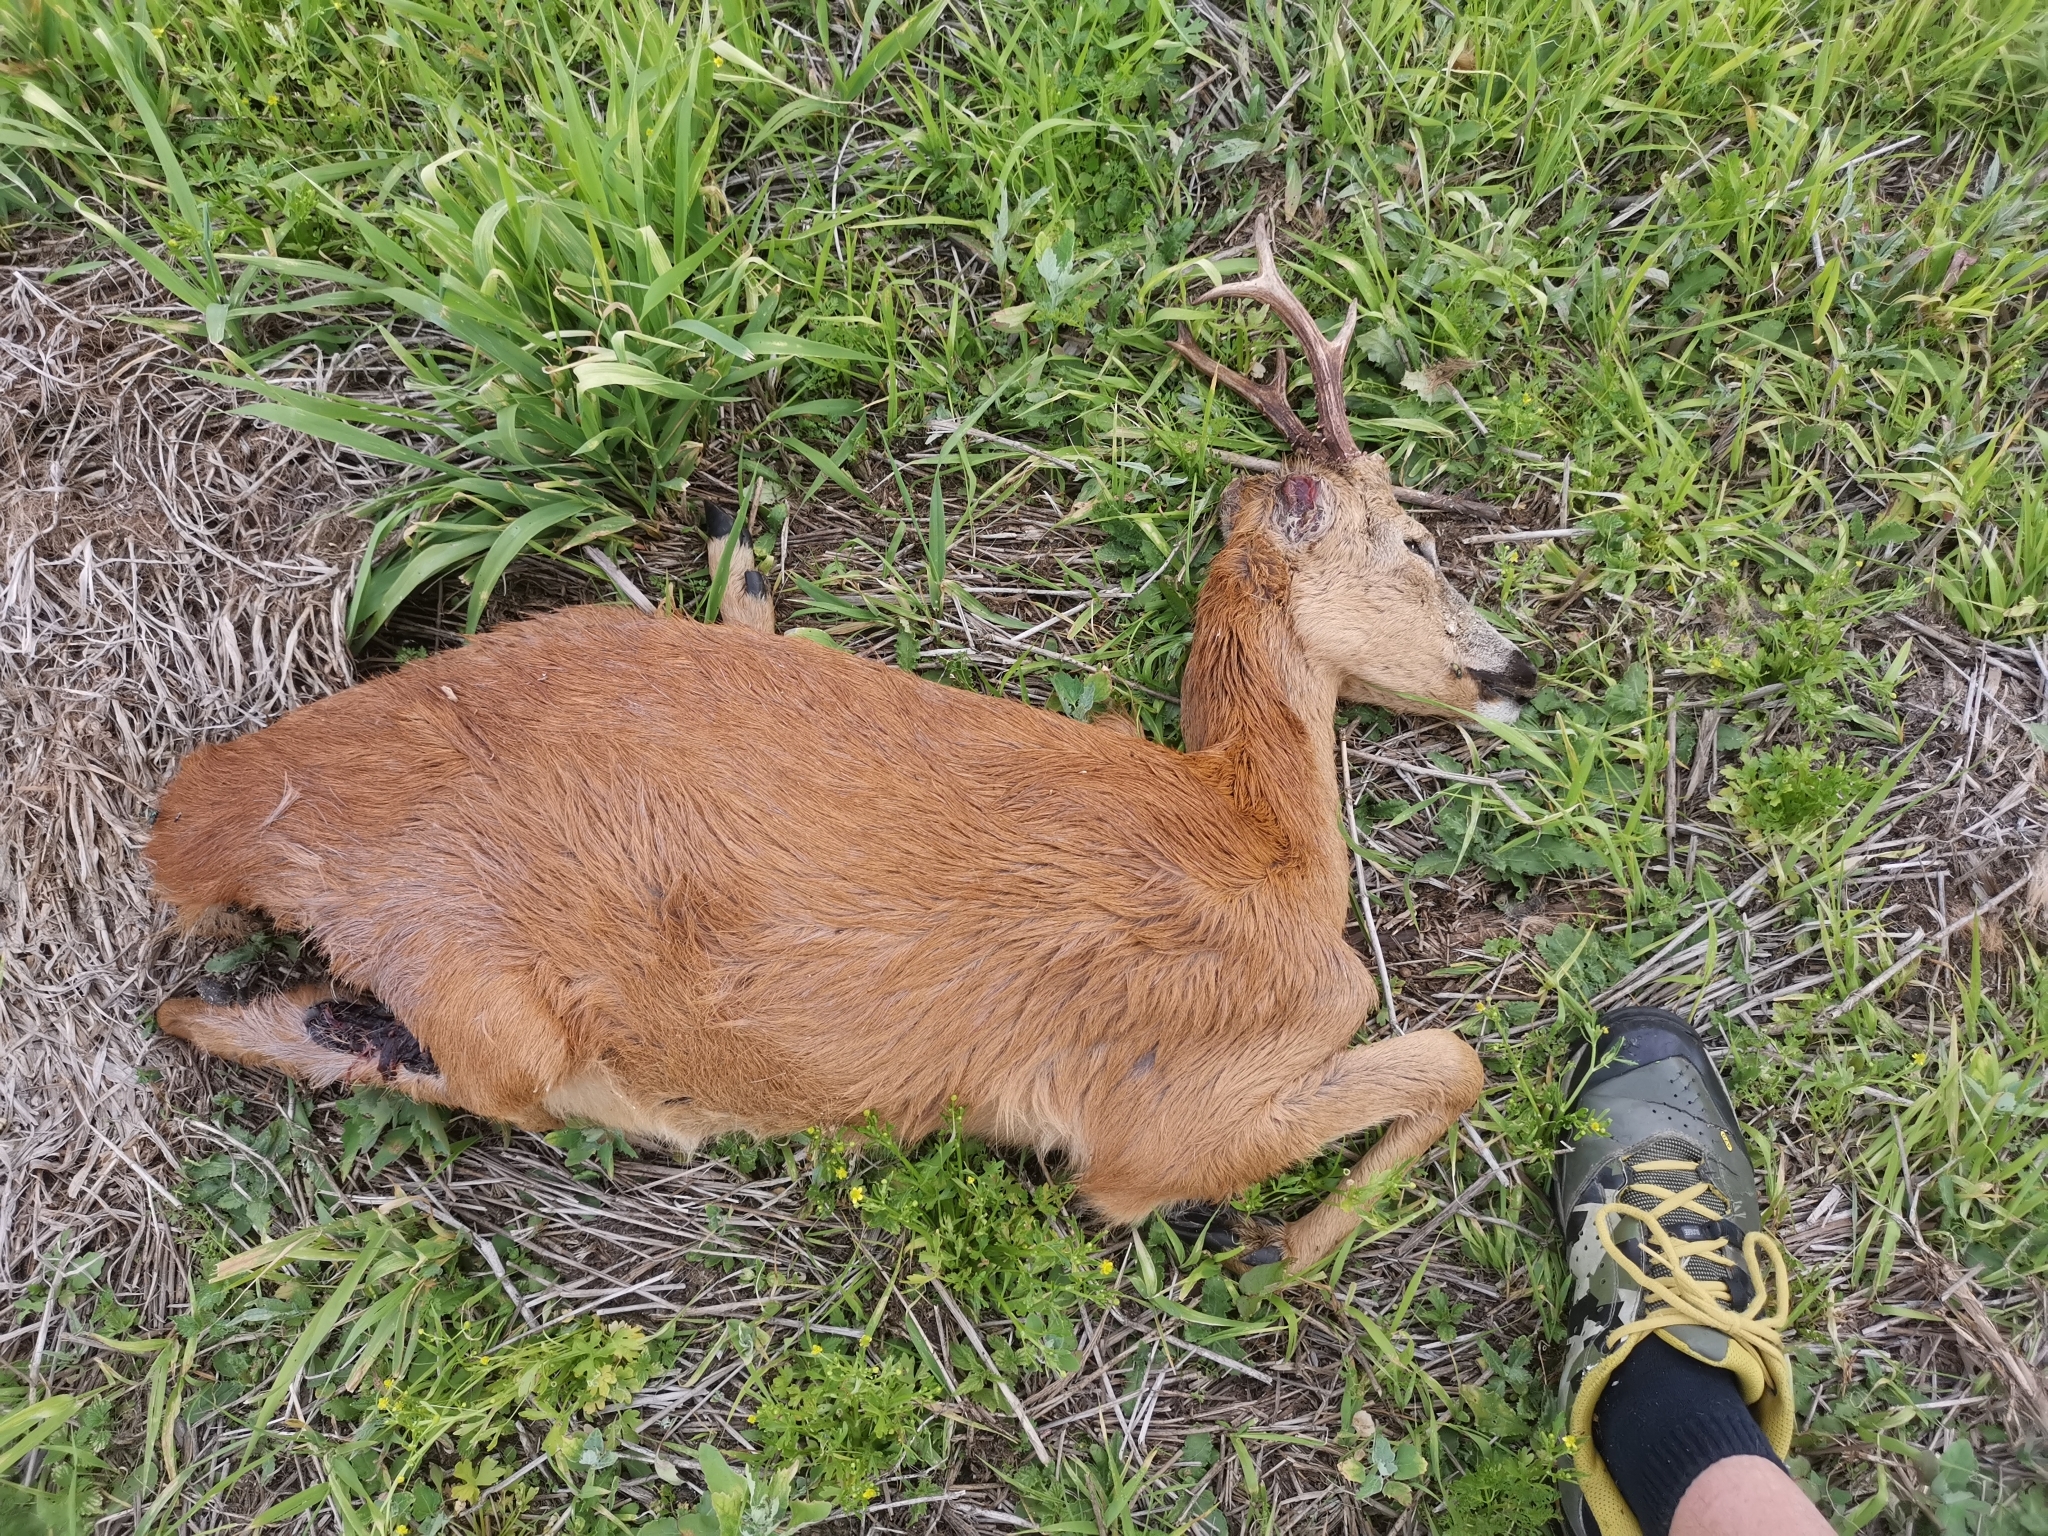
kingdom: Animalia
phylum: Chordata
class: Mammalia
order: Artiodactyla
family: Cervidae
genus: Capreolus
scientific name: Capreolus capreolus
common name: Western roe deer
